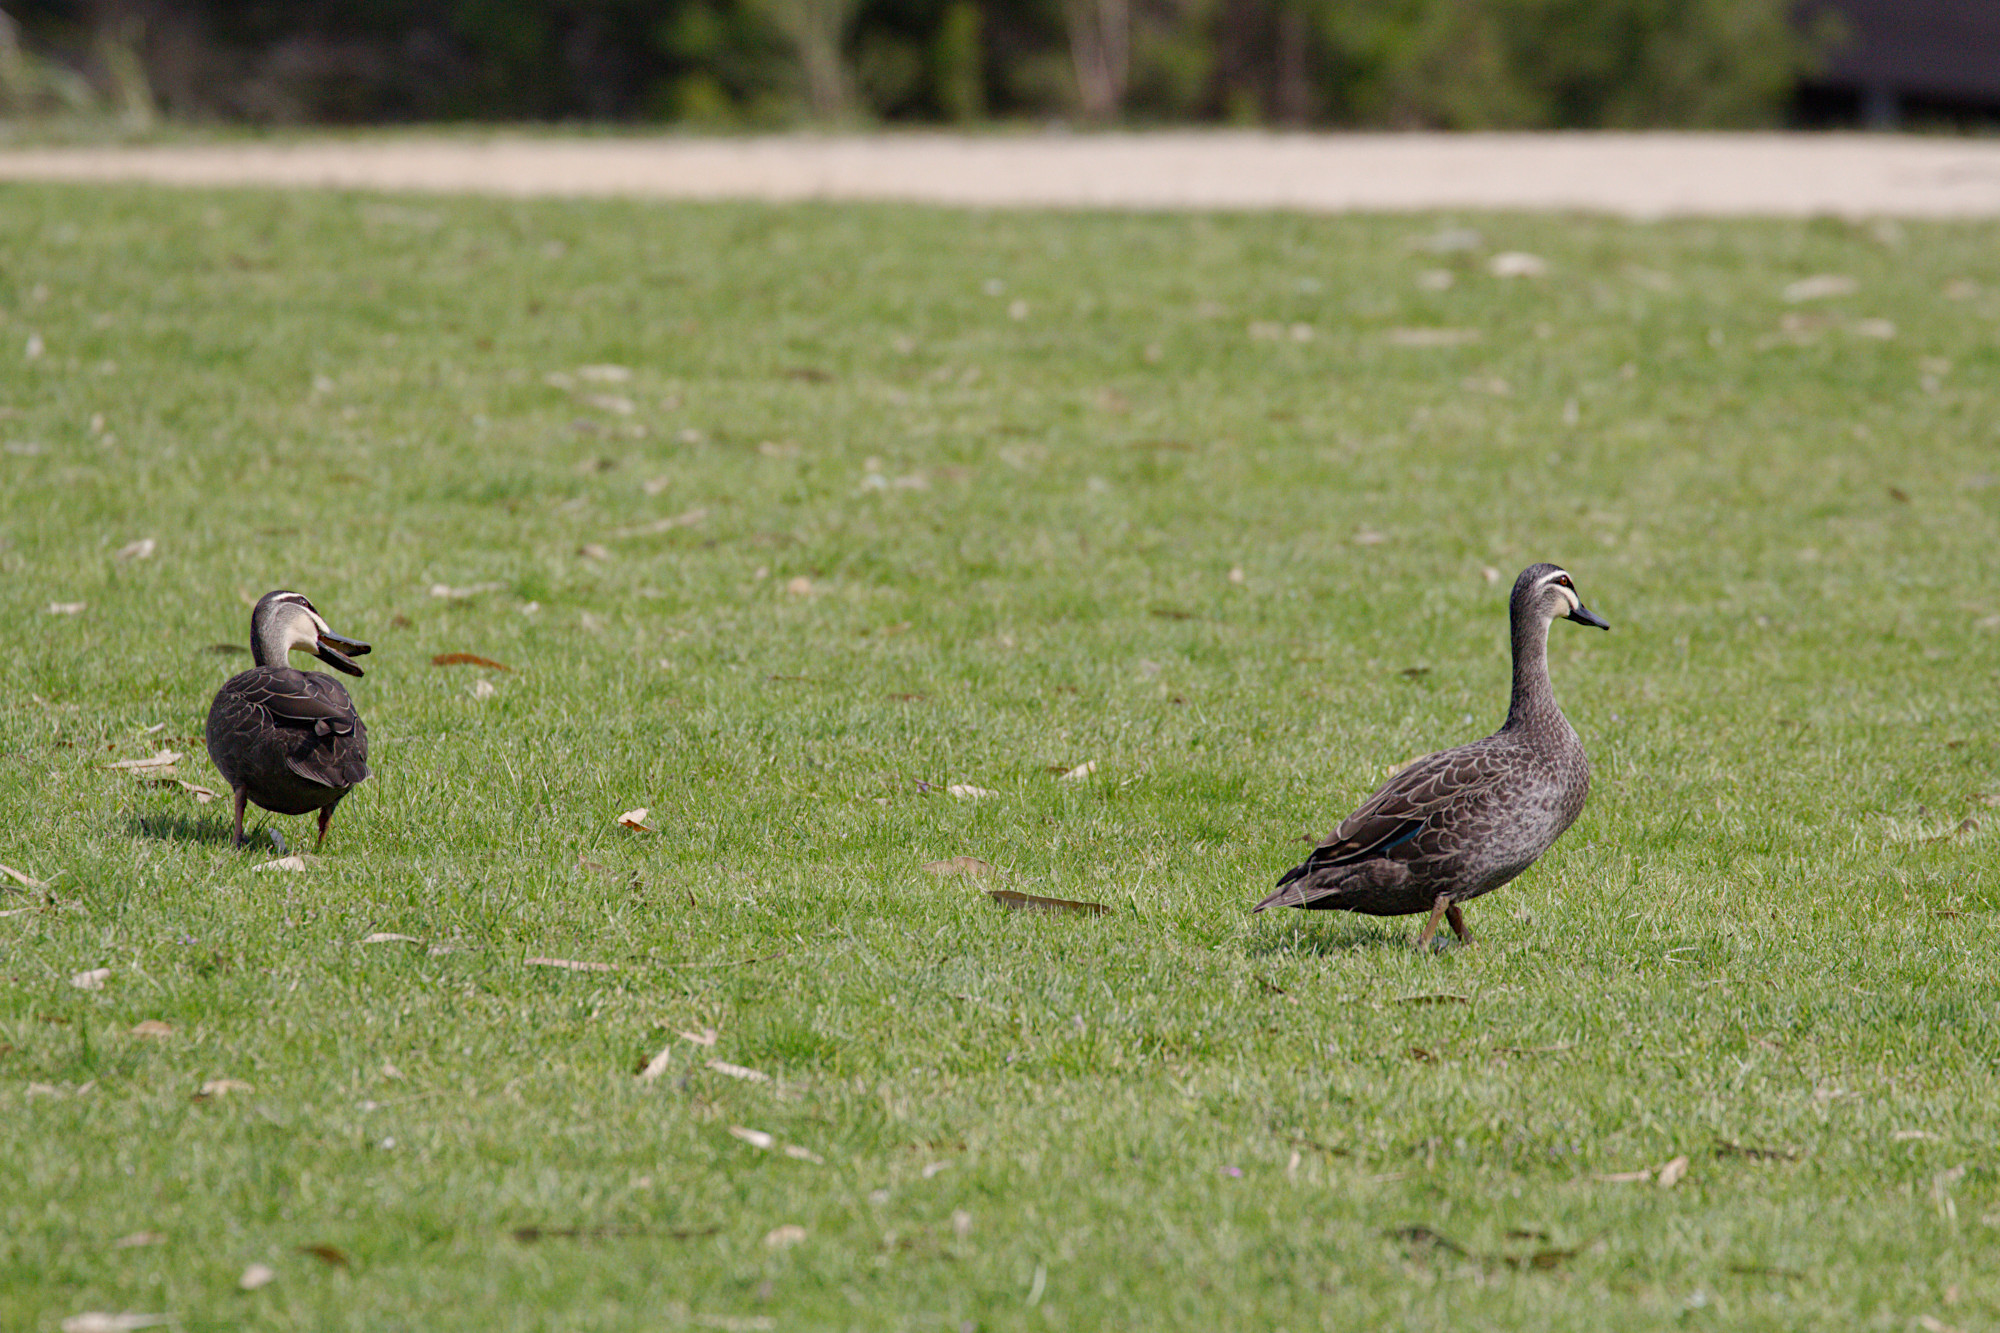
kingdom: Animalia
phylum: Chordata
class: Aves
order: Anseriformes
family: Anatidae
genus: Anas
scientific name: Anas superciliosa
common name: Pacific black duck
